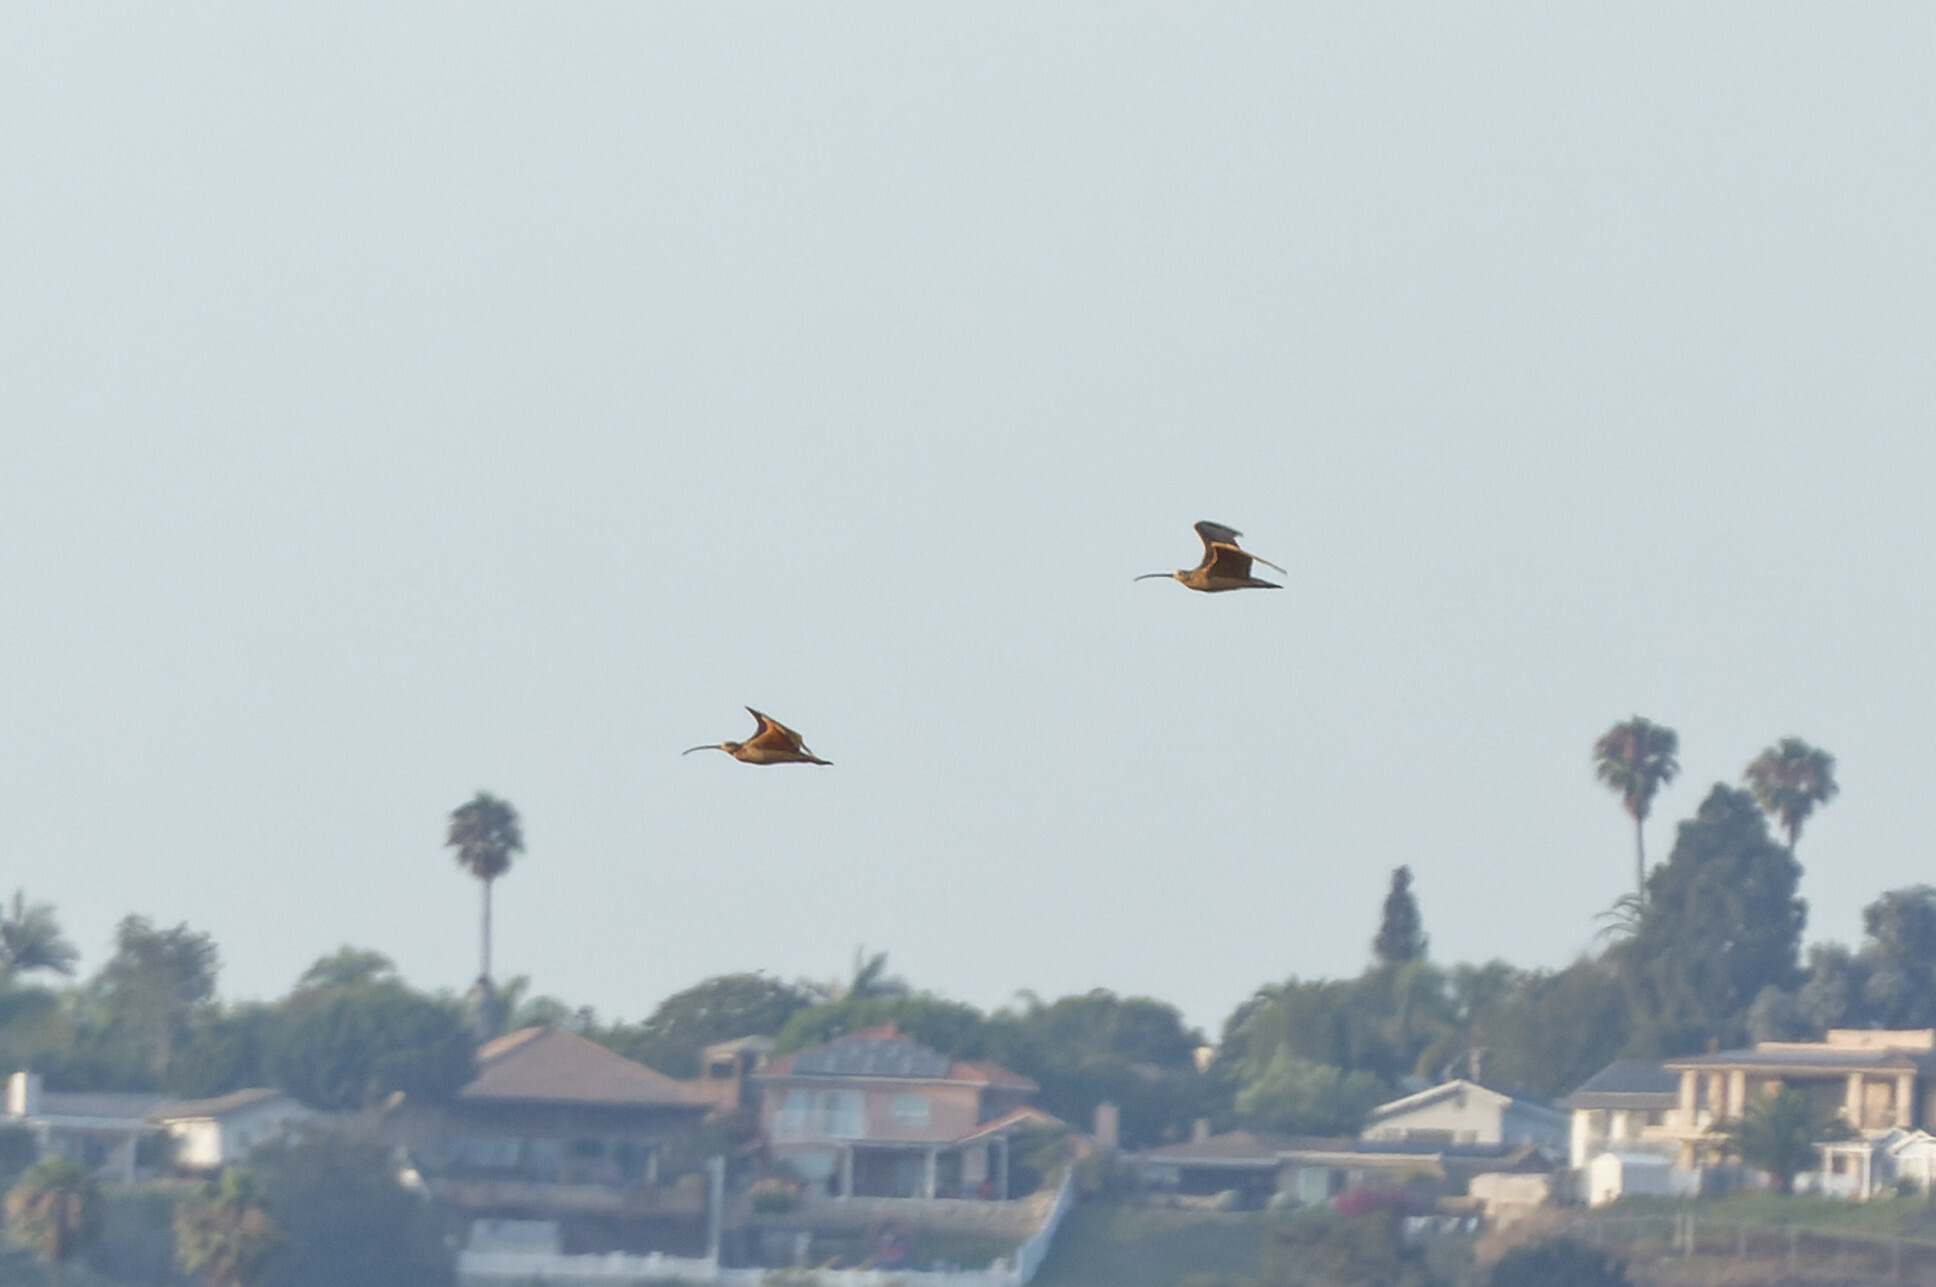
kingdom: Animalia
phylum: Chordata
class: Aves
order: Charadriiformes
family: Scolopacidae
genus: Numenius
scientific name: Numenius americanus
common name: Long-billed curlew
